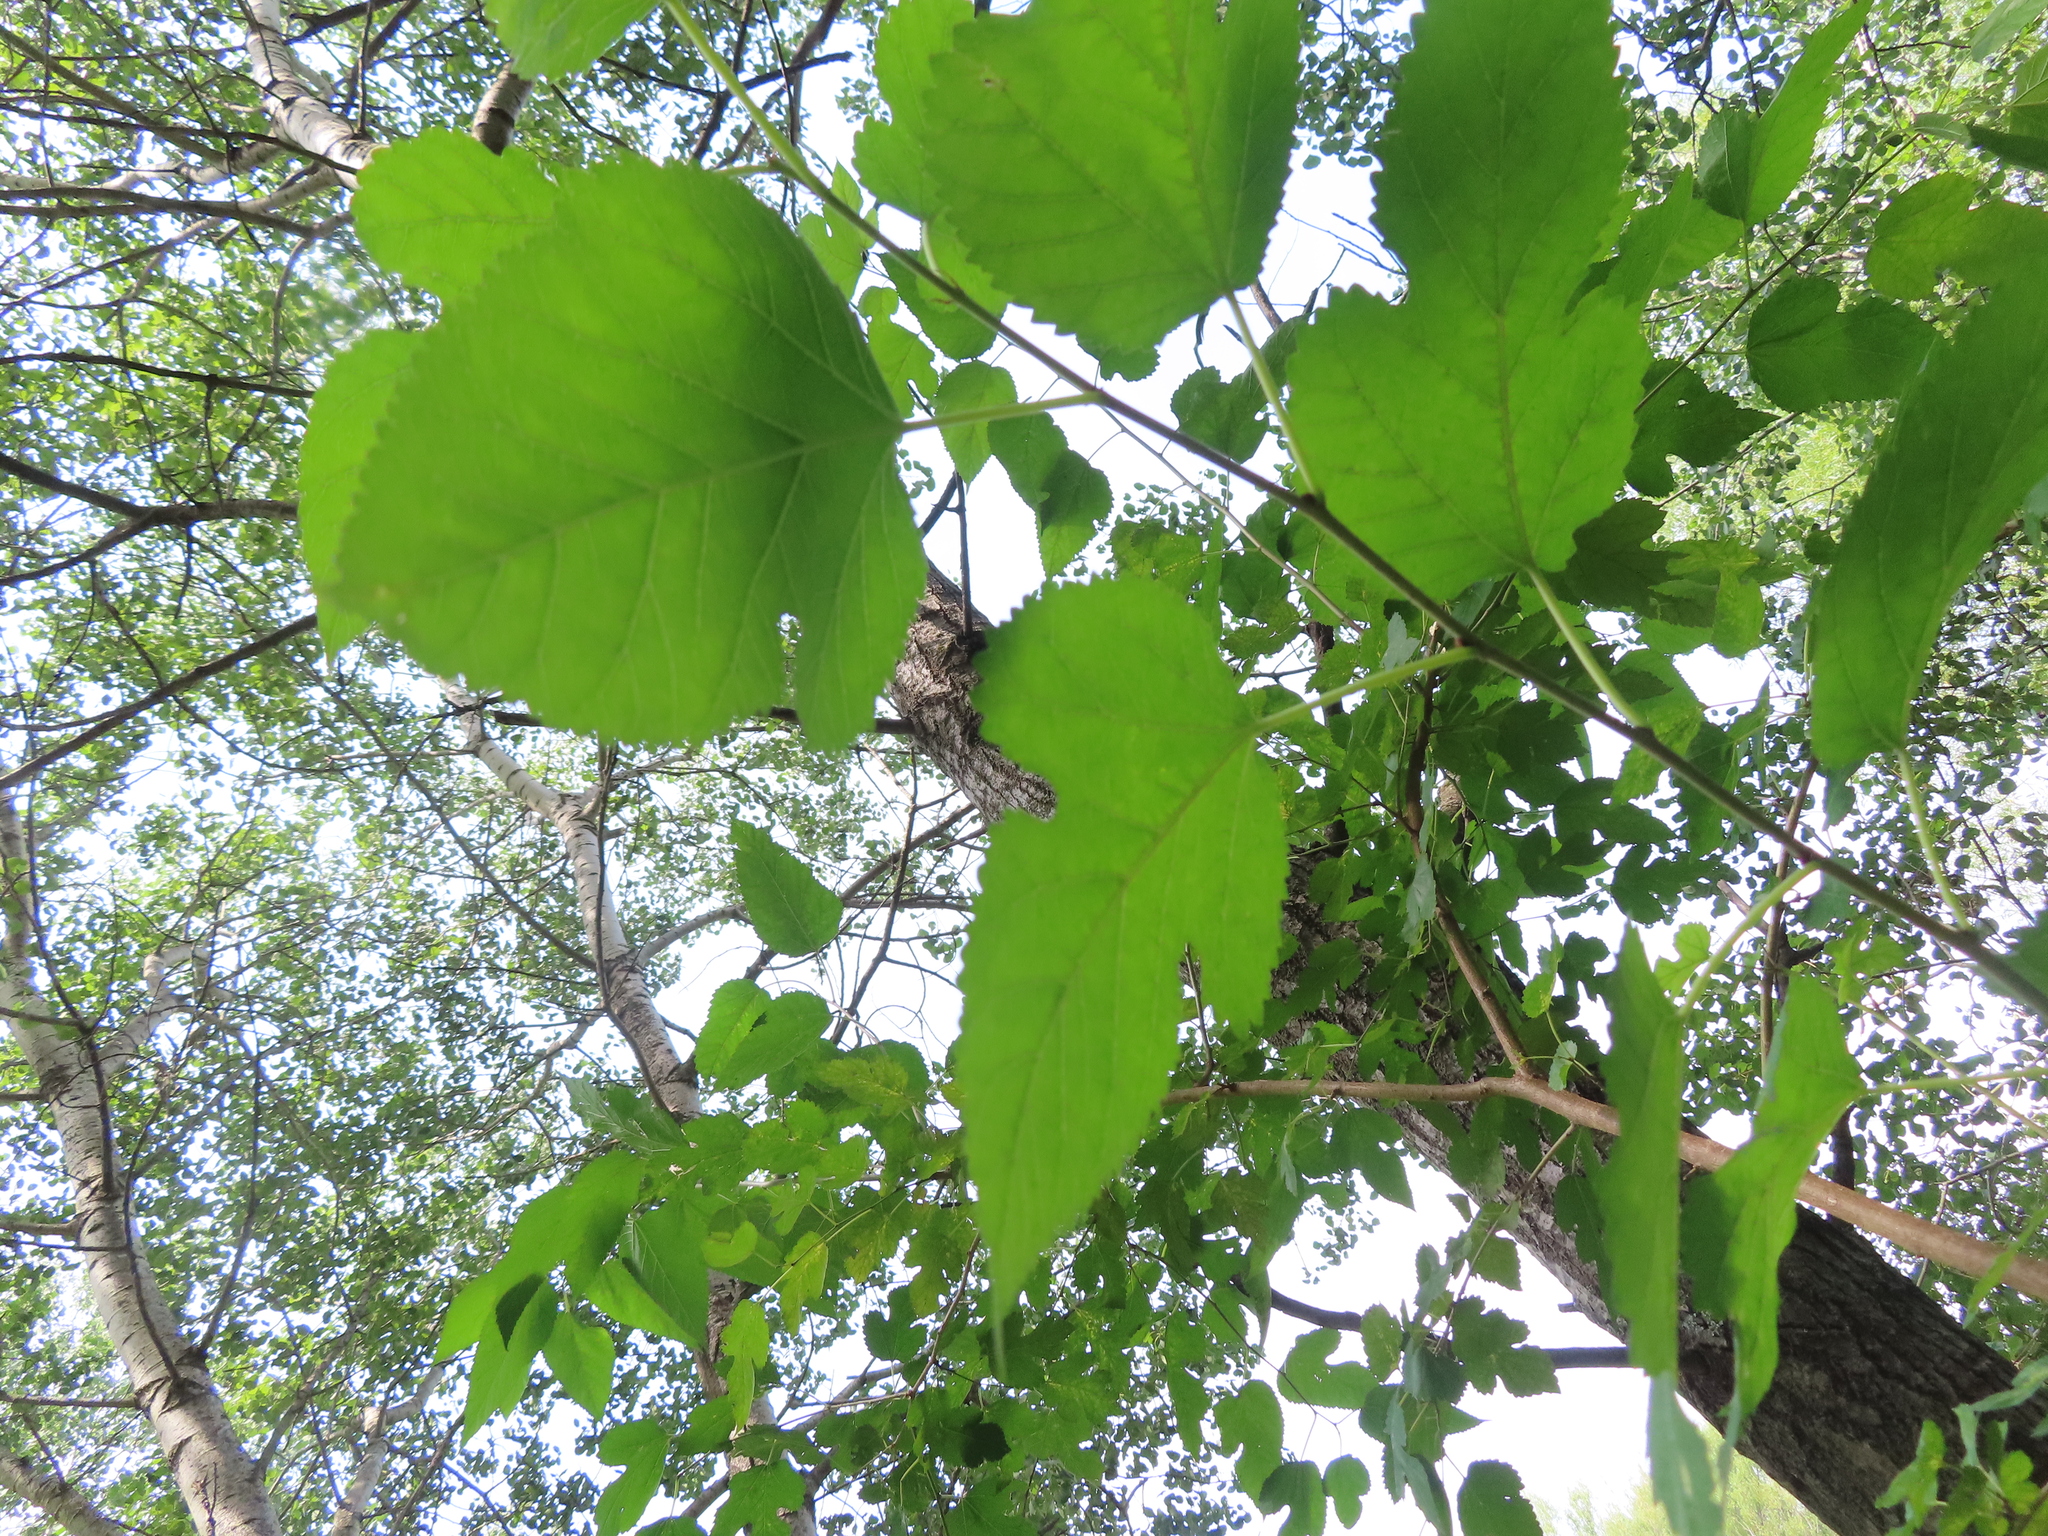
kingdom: Plantae
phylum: Tracheophyta
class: Magnoliopsida
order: Rosales
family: Moraceae
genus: Morus
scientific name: Morus alba
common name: White mulberry
